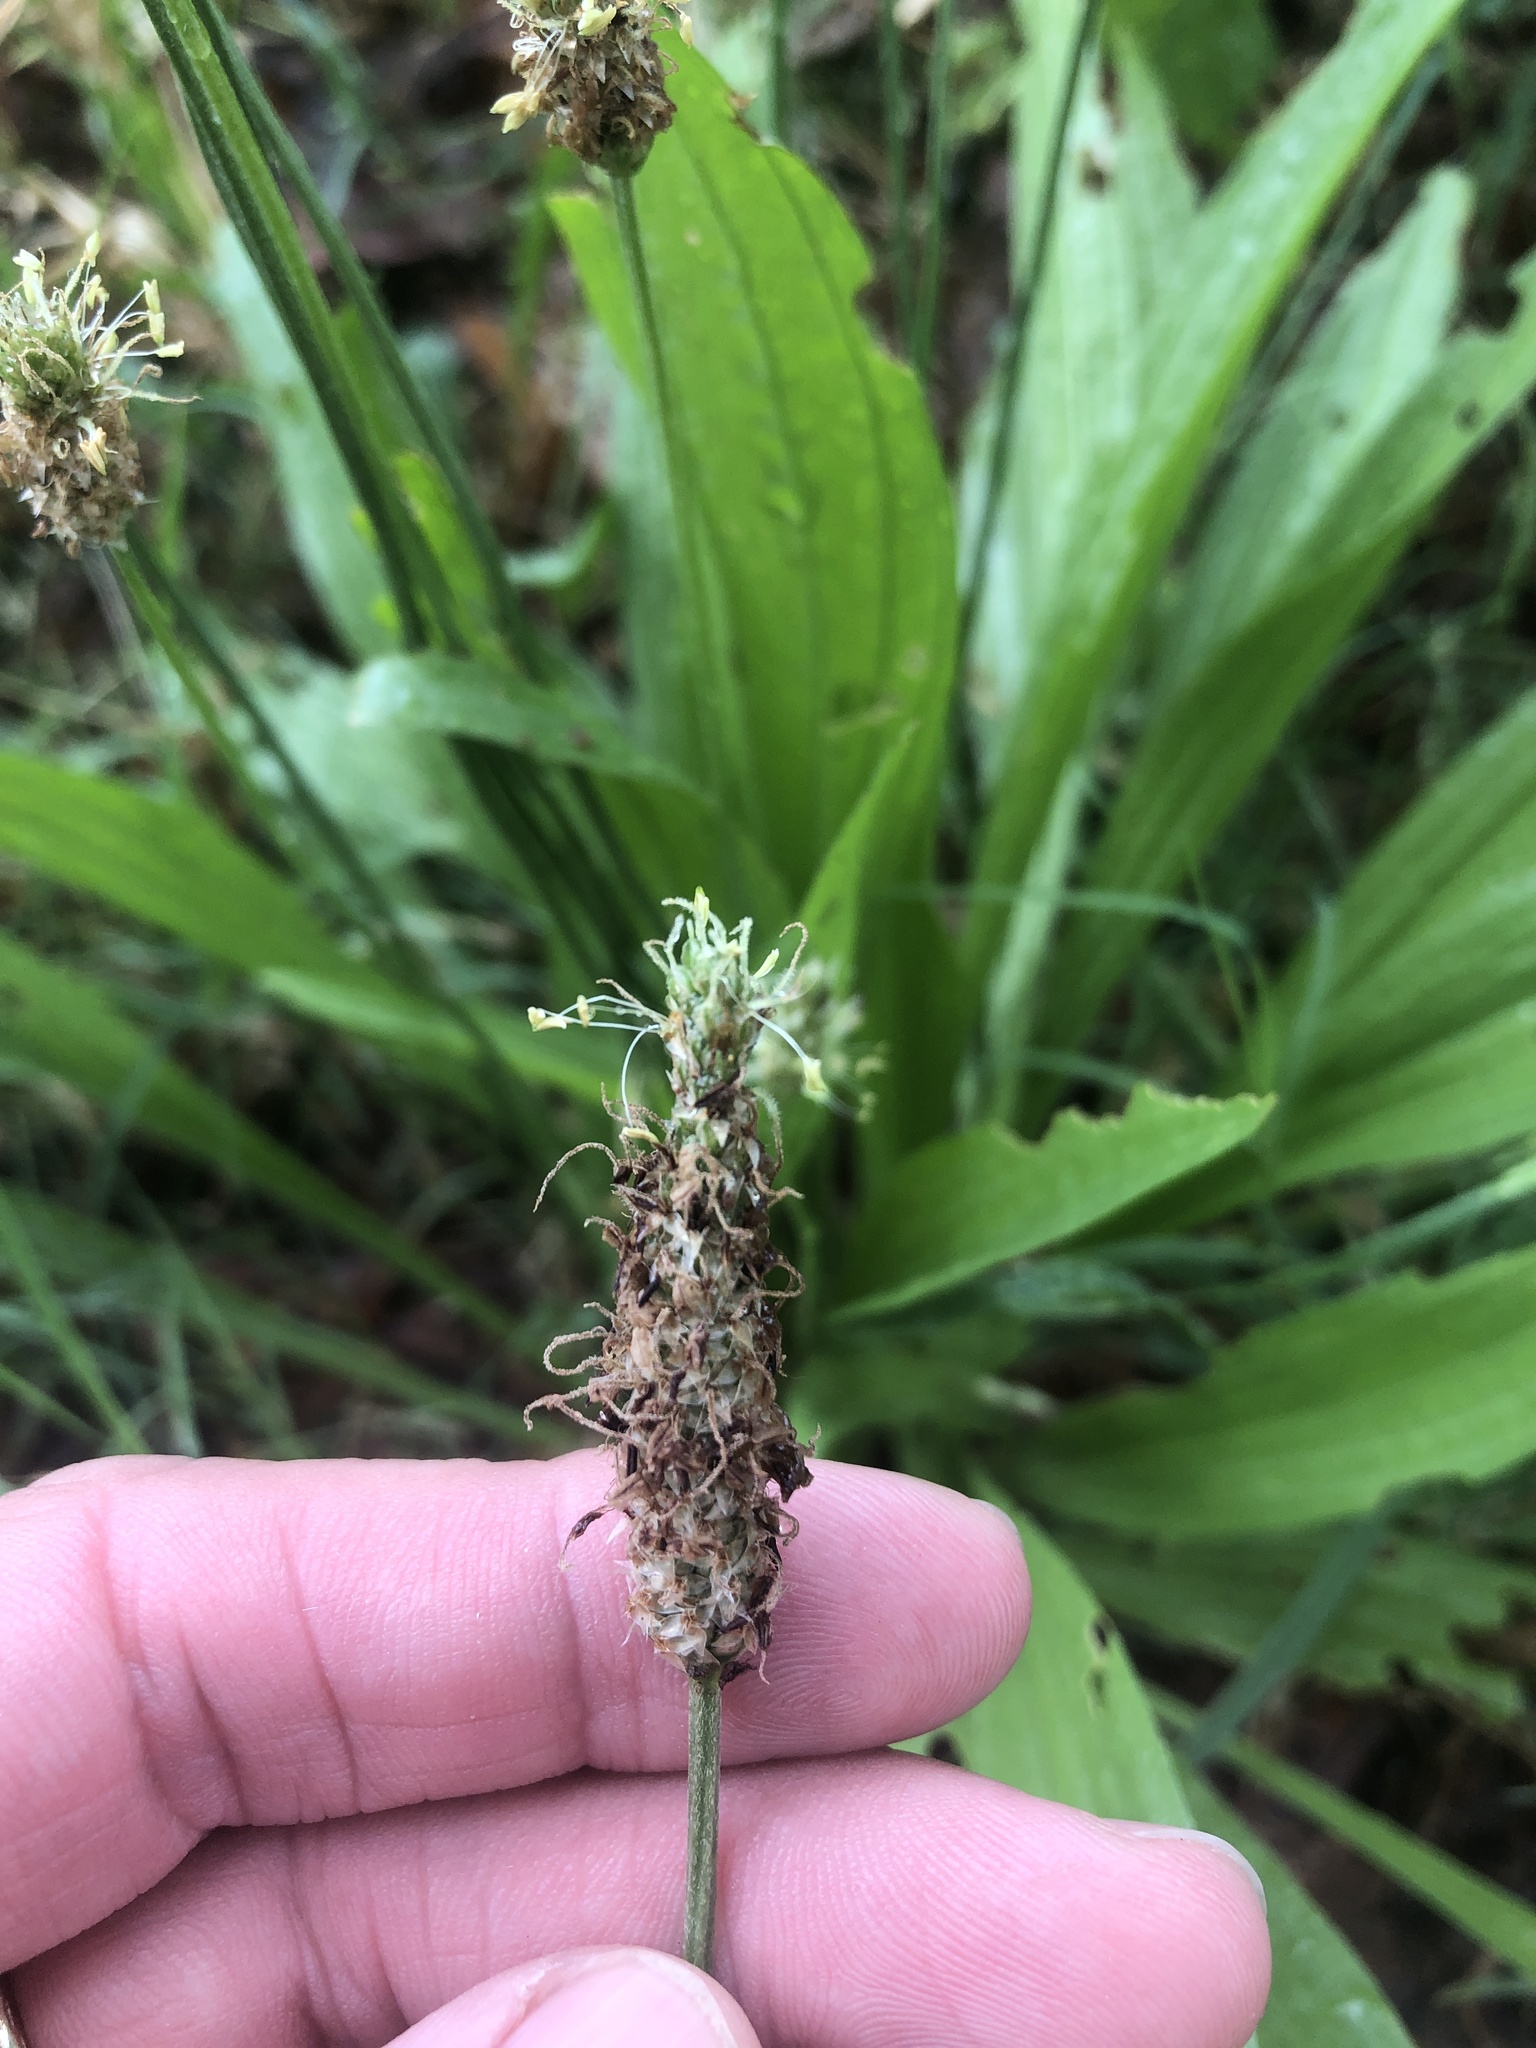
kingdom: Plantae
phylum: Tracheophyta
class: Magnoliopsida
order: Lamiales
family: Plantaginaceae
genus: Plantago
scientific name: Plantago lanceolata
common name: Ribwort plantain
